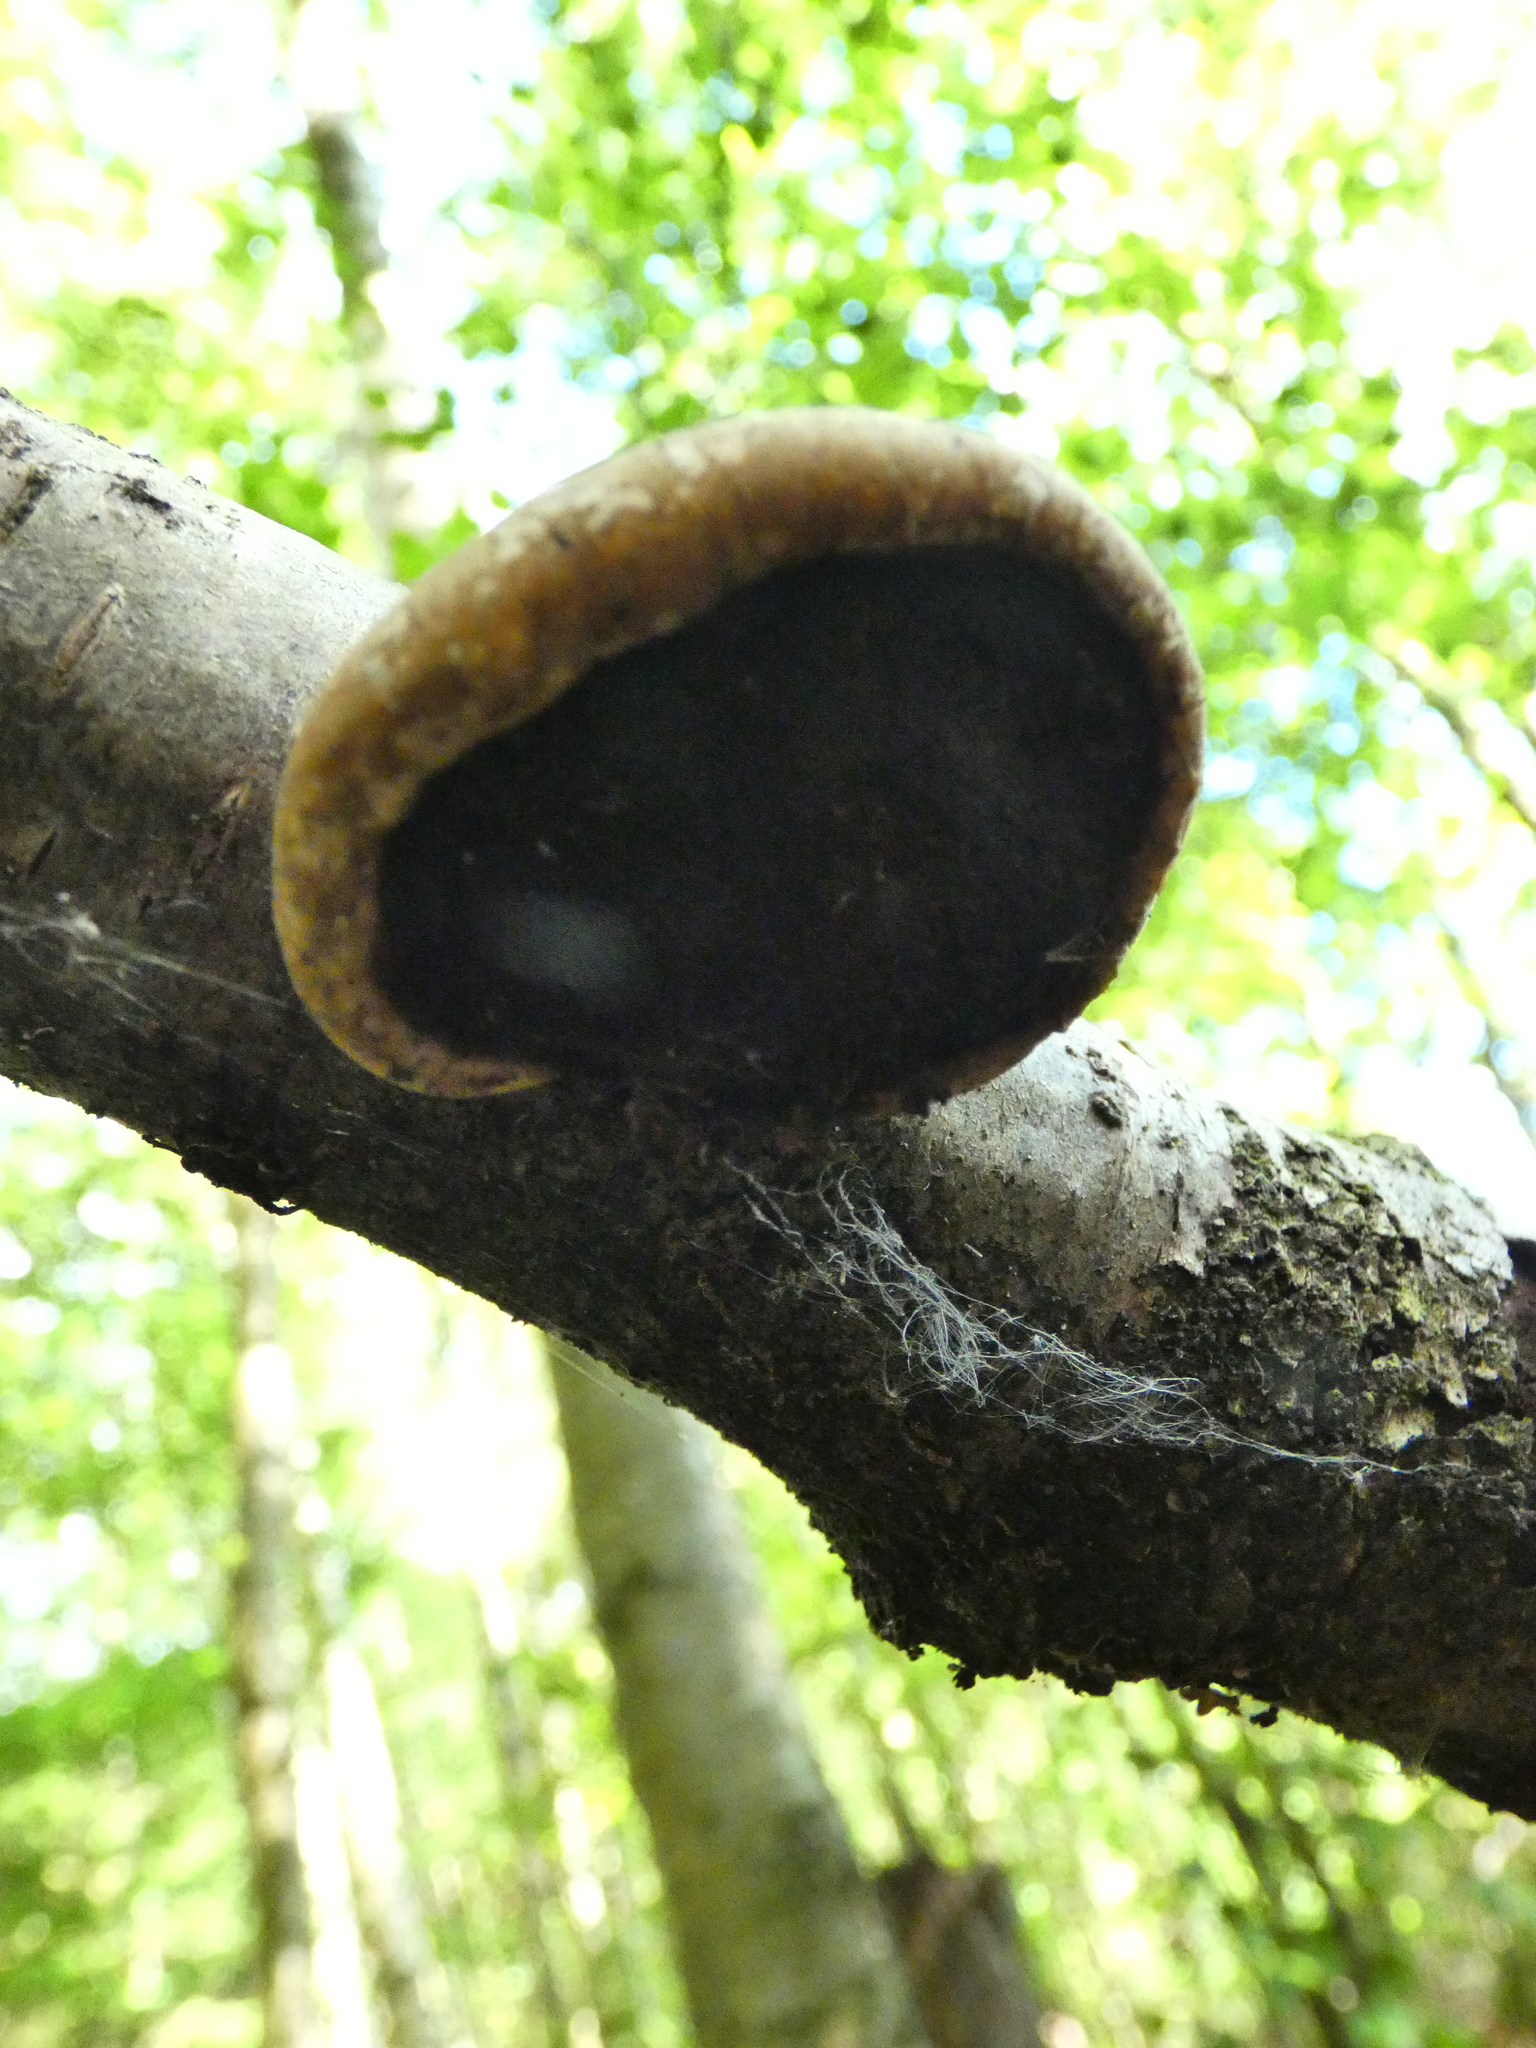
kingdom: Fungi
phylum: Basidiomycota
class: Agaricomycetes
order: Polyporales
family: Fomitopsidaceae
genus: Fomitopsis
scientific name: Fomitopsis betulina
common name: Birch polypore
